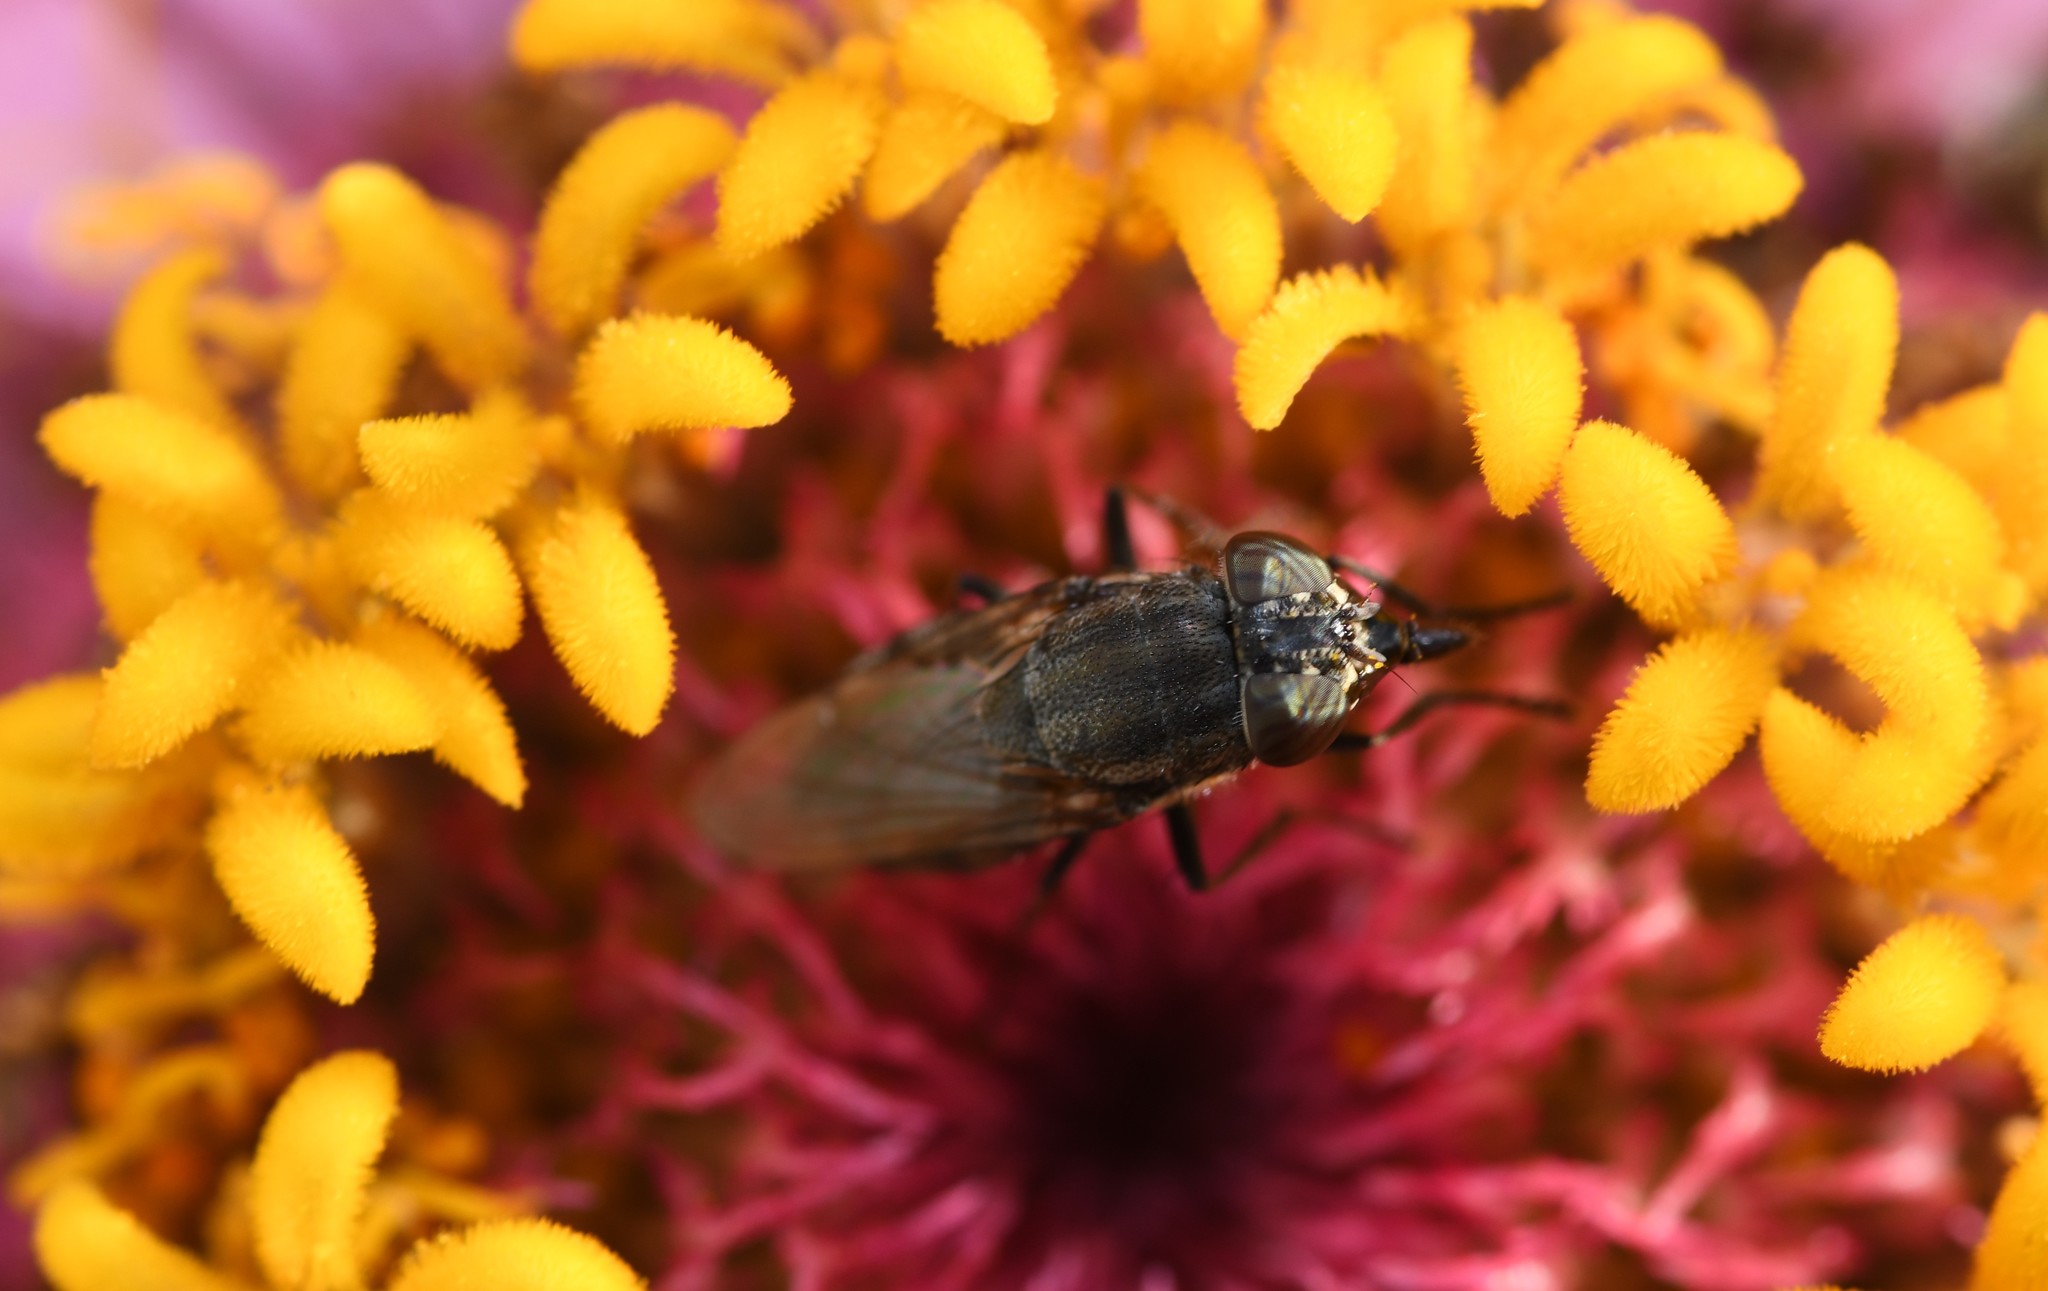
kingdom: Animalia
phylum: Arthropoda
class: Insecta
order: Diptera
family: Calliphoridae
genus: Stomorhina
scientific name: Stomorhina lunata
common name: Locust blowfly
